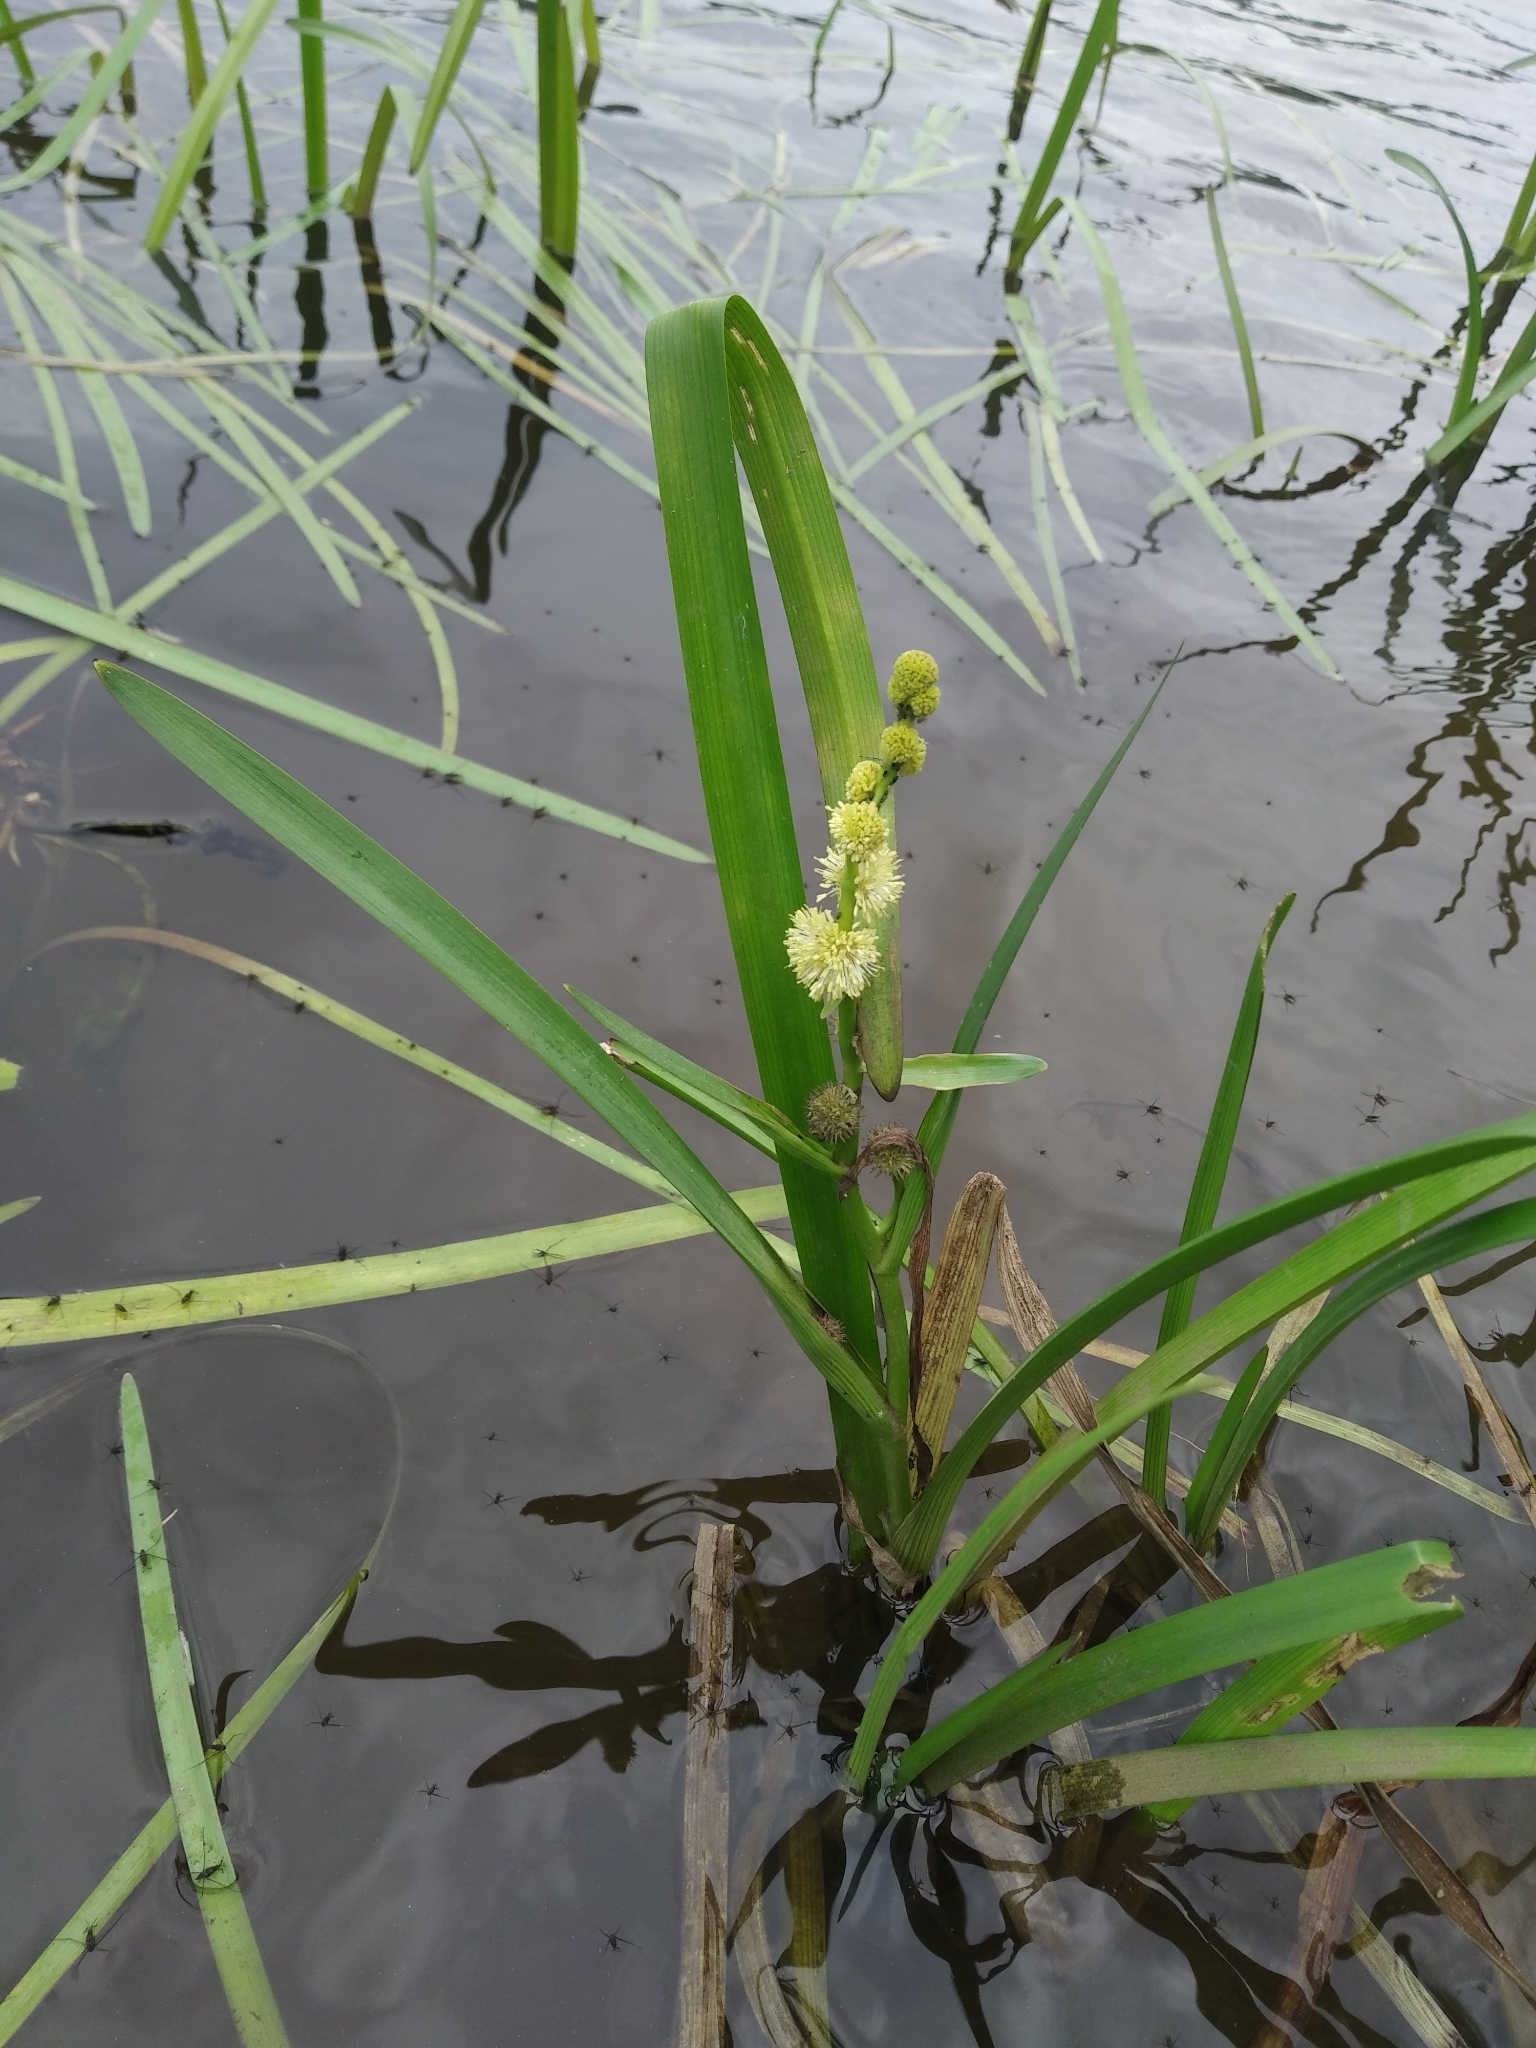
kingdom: Plantae
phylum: Tracheophyta
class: Liliopsida
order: Poales
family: Typhaceae
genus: Sparganium
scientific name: Sparganium emersum
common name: Unbranched bur-reed
